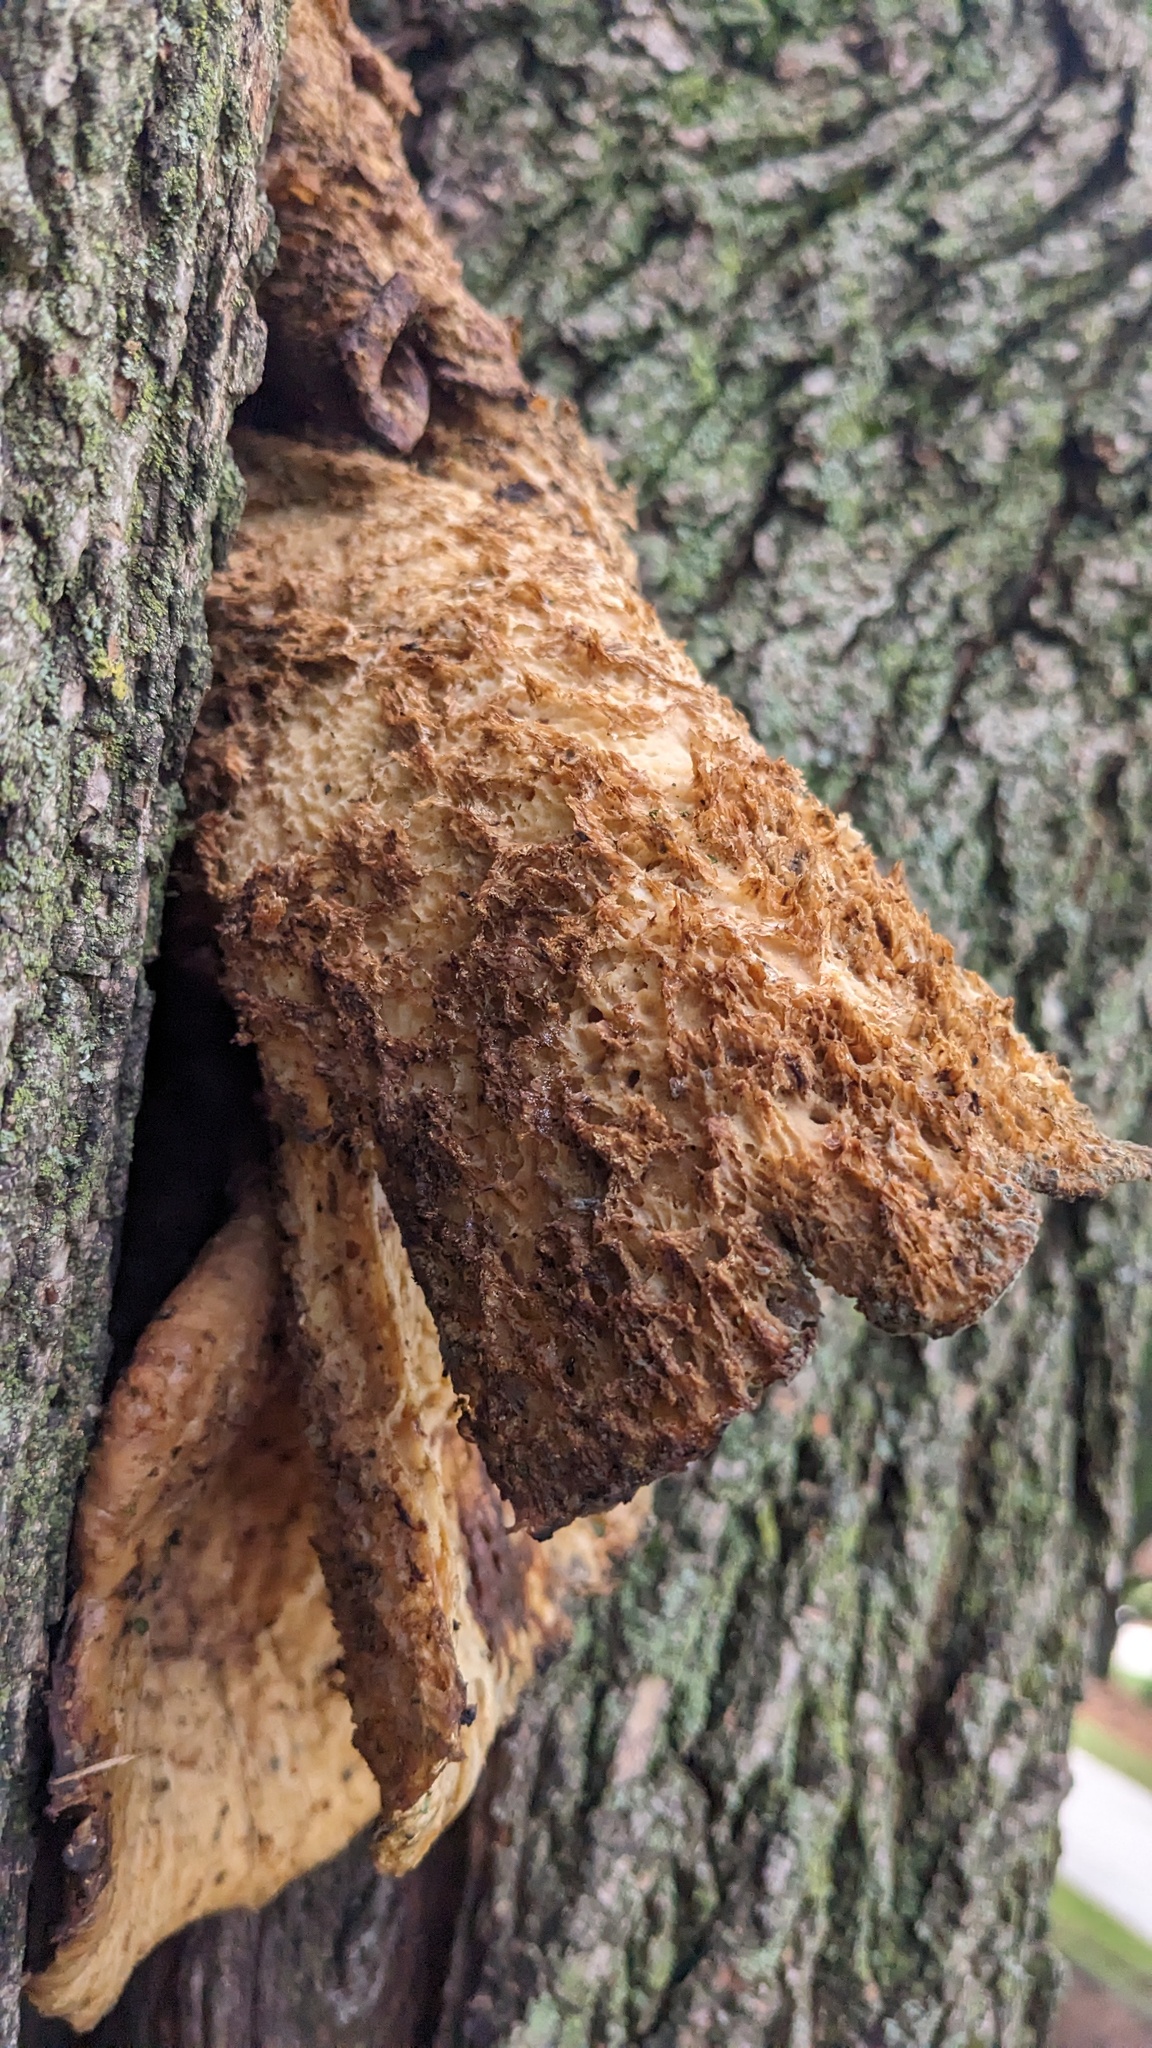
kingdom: Fungi
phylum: Basidiomycota
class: Agaricomycetes
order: Polyporales
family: Polyporaceae
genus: Cerioporus
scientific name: Cerioporus squamosus
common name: Dryad's saddle
